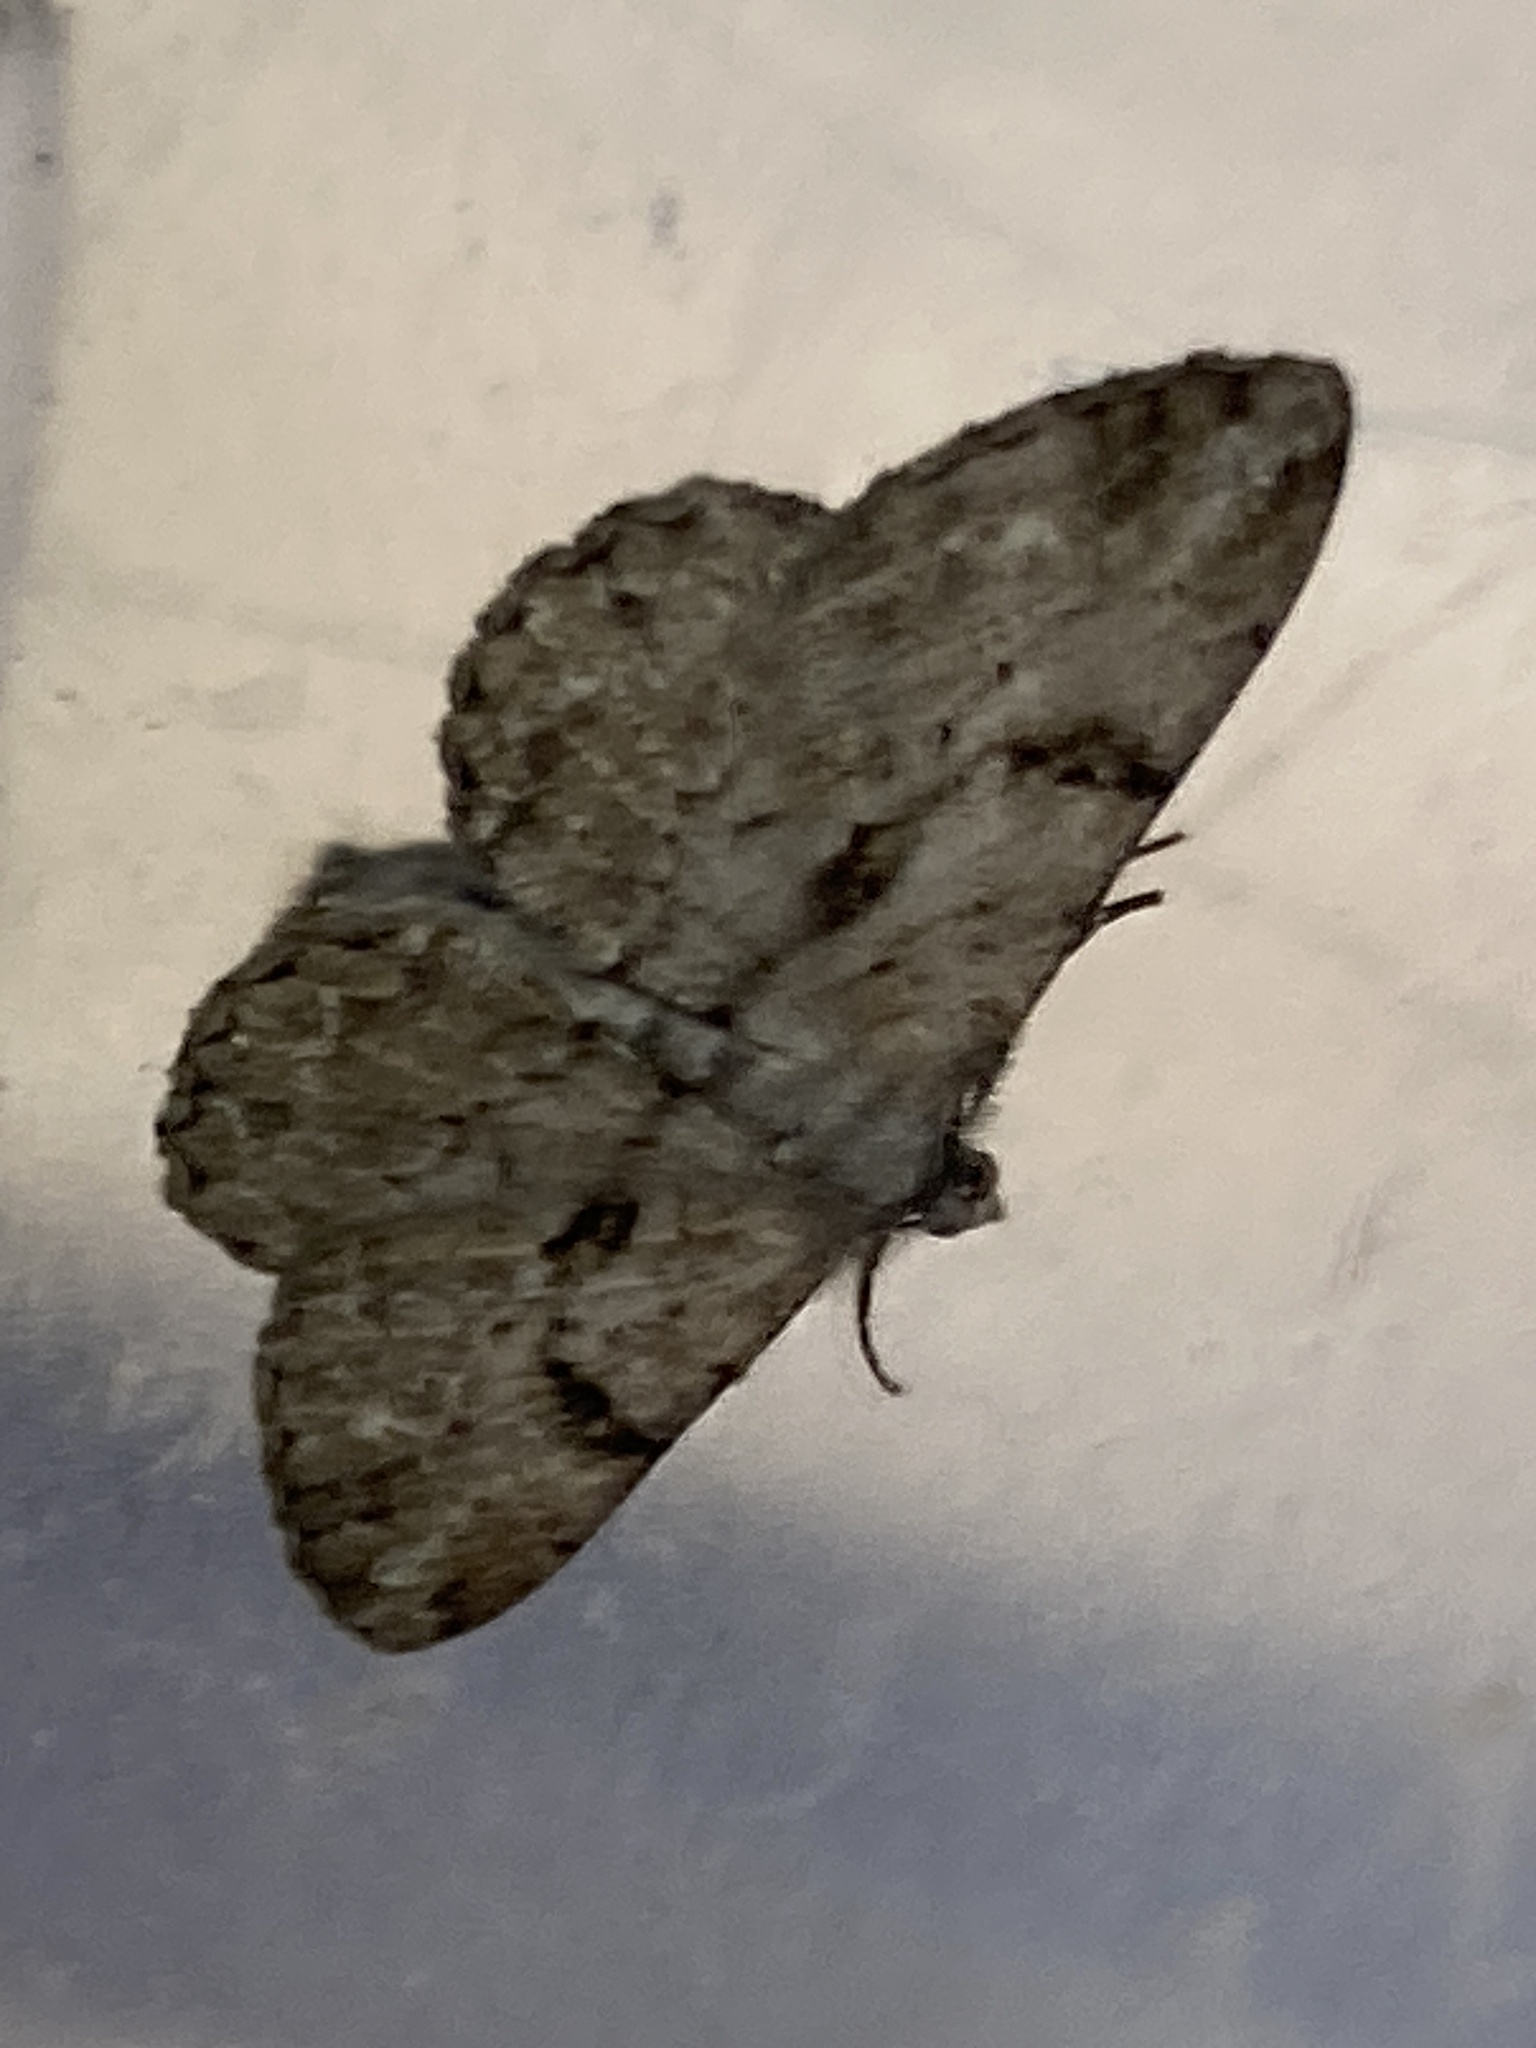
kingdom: Animalia
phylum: Arthropoda
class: Insecta
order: Lepidoptera
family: Geometridae
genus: Peribatodes
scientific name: Peribatodes rhomboidaria
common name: Willow beauty
